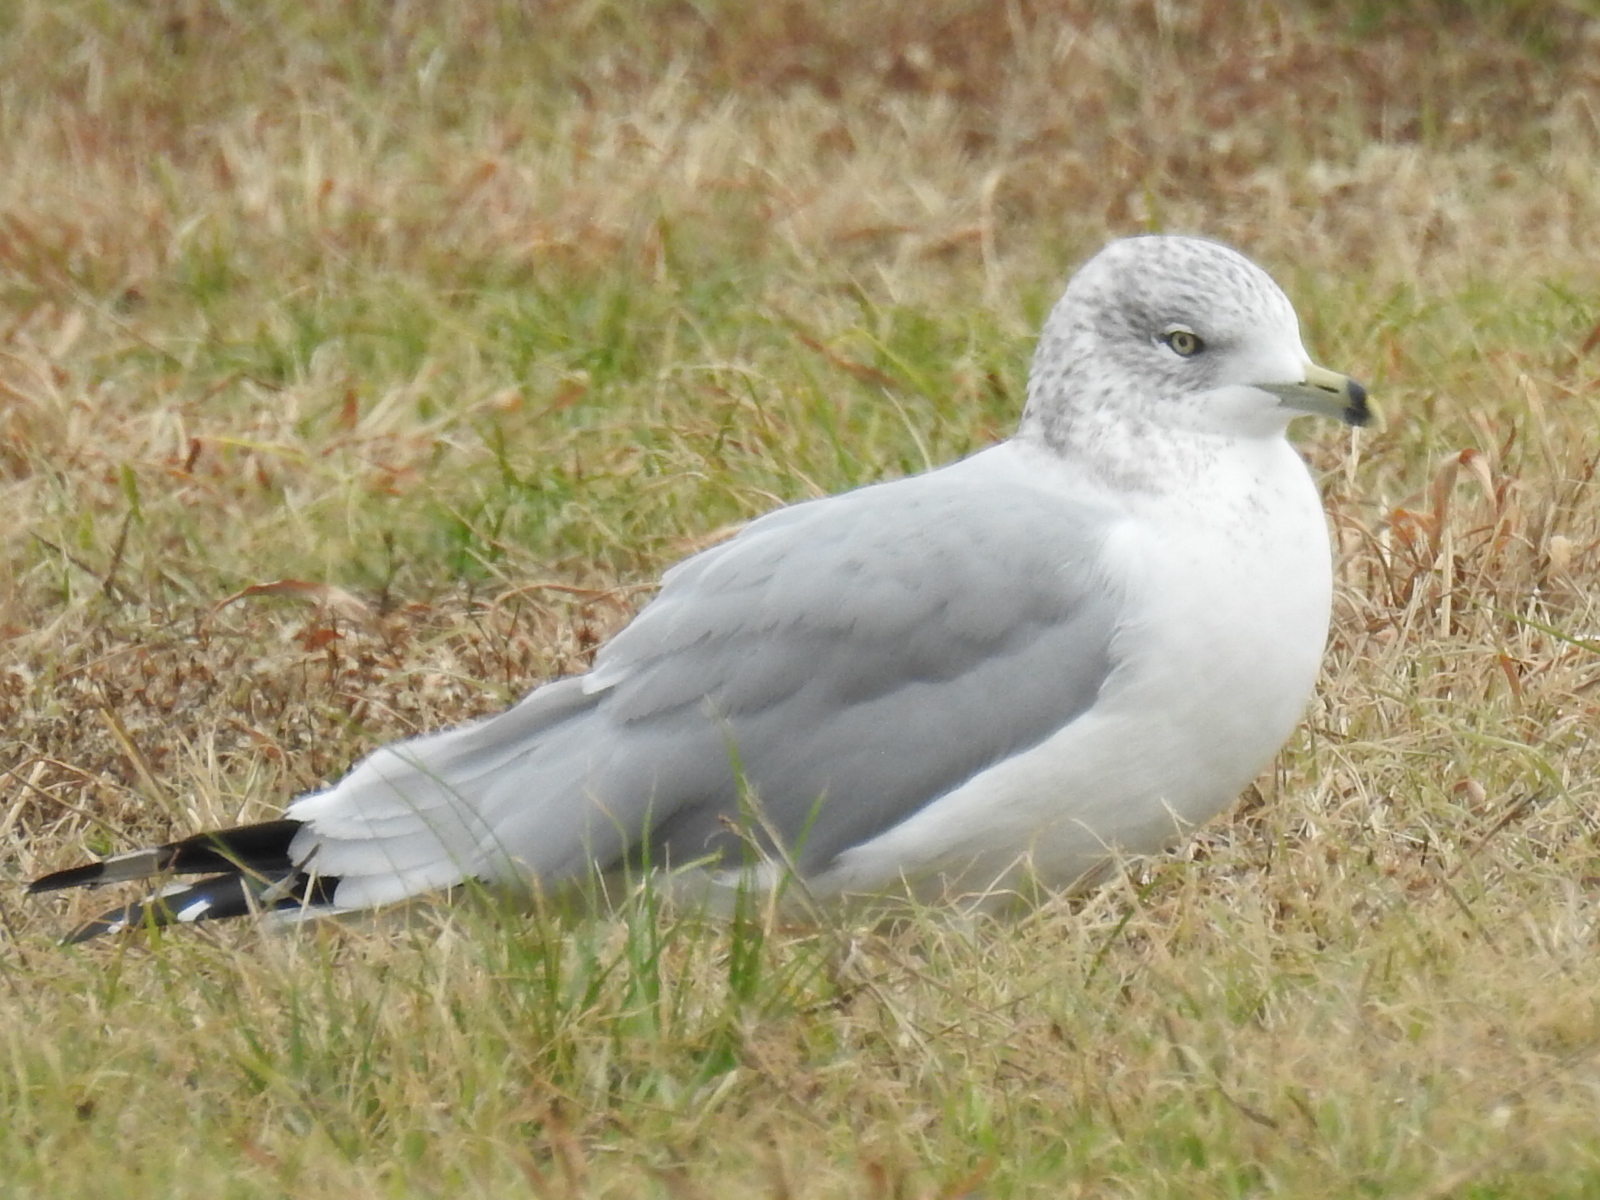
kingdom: Animalia
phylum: Chordata
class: Aves
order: Charadriiformes
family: Laridae
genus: Larus
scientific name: Larus delawarensis
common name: Ring-billed gull
